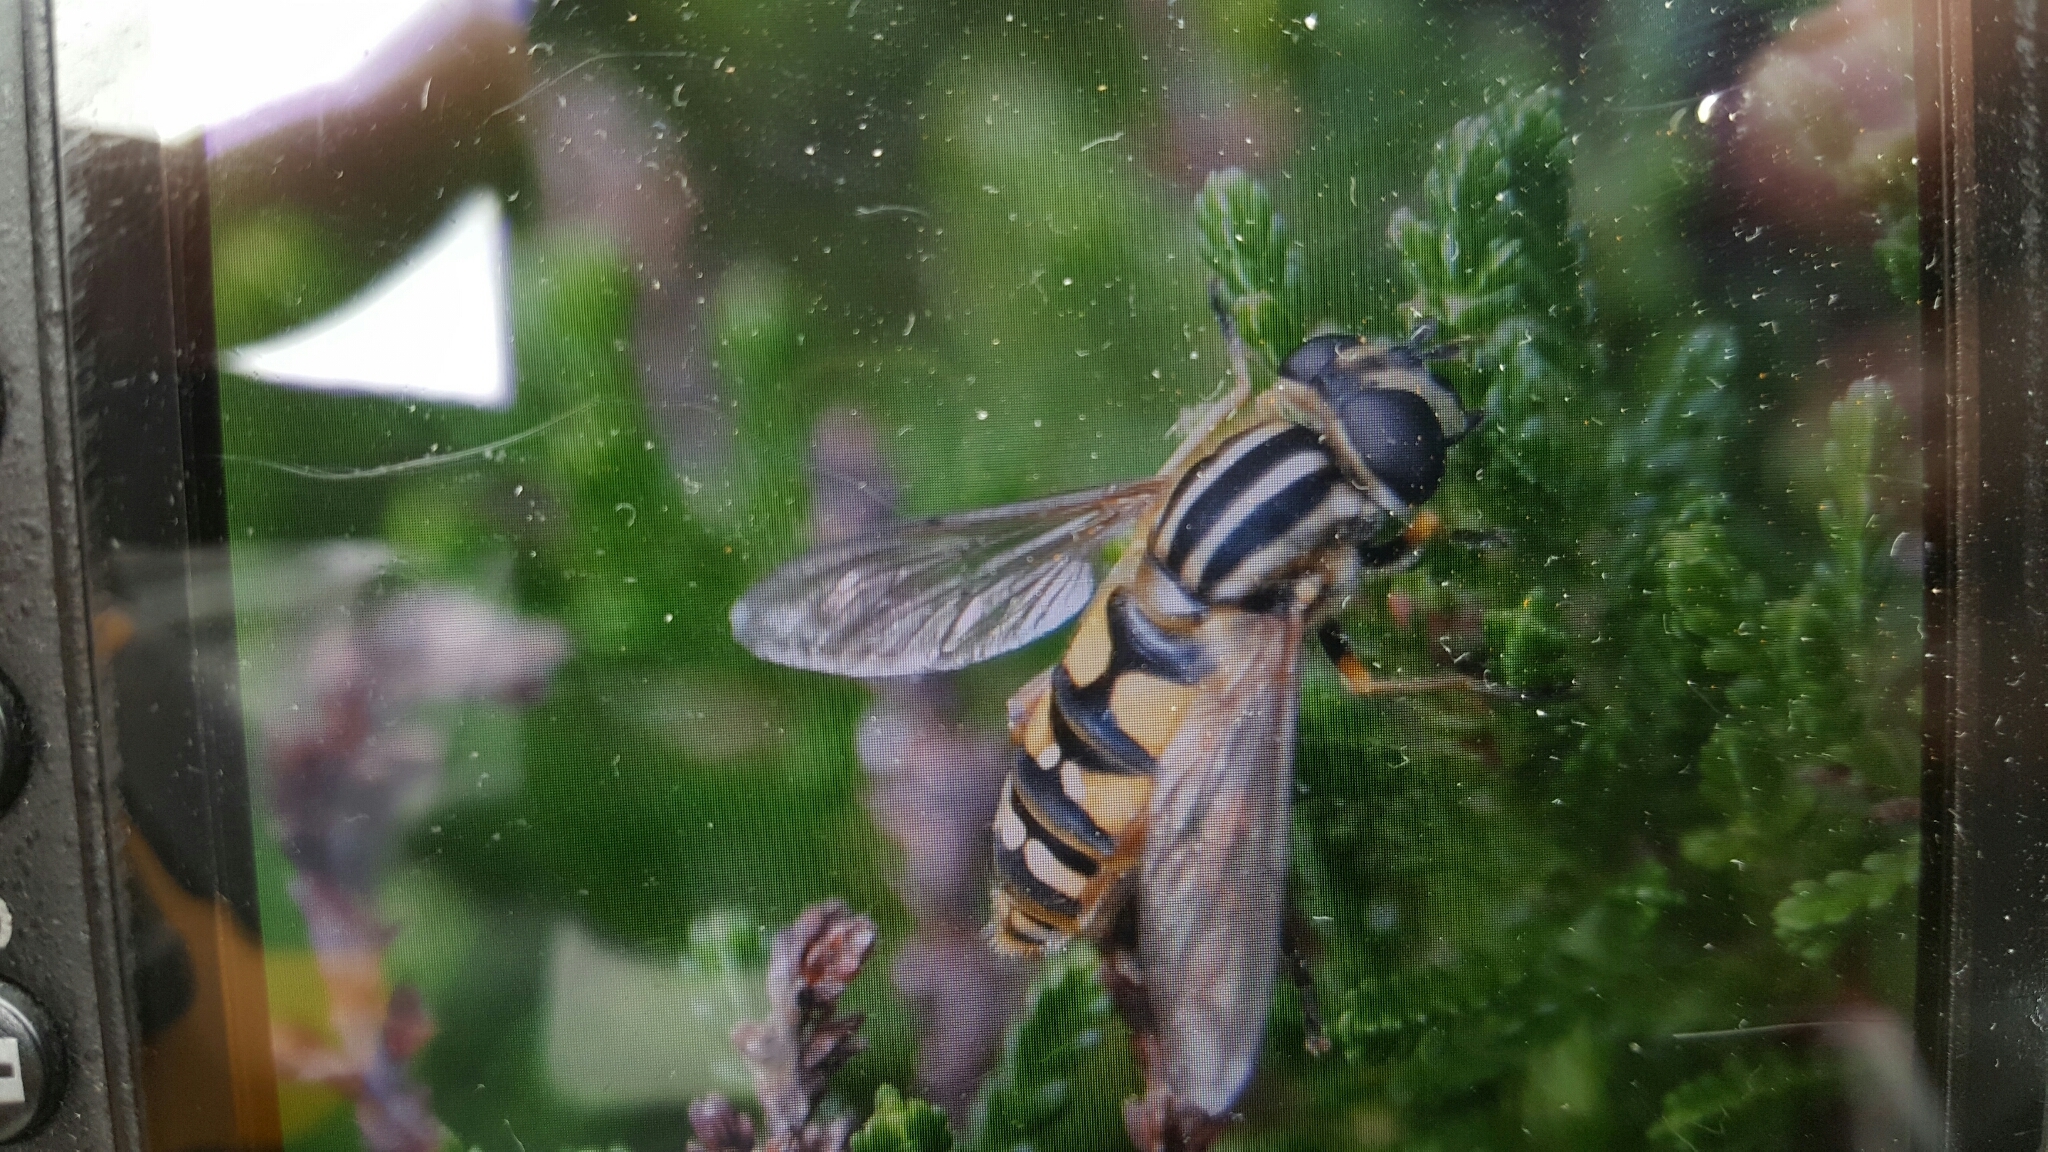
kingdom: Animalia
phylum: Arthropoda
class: Insecta
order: Diptera
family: Syrphidae
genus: Helophilus
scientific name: Helophilus pendulus
